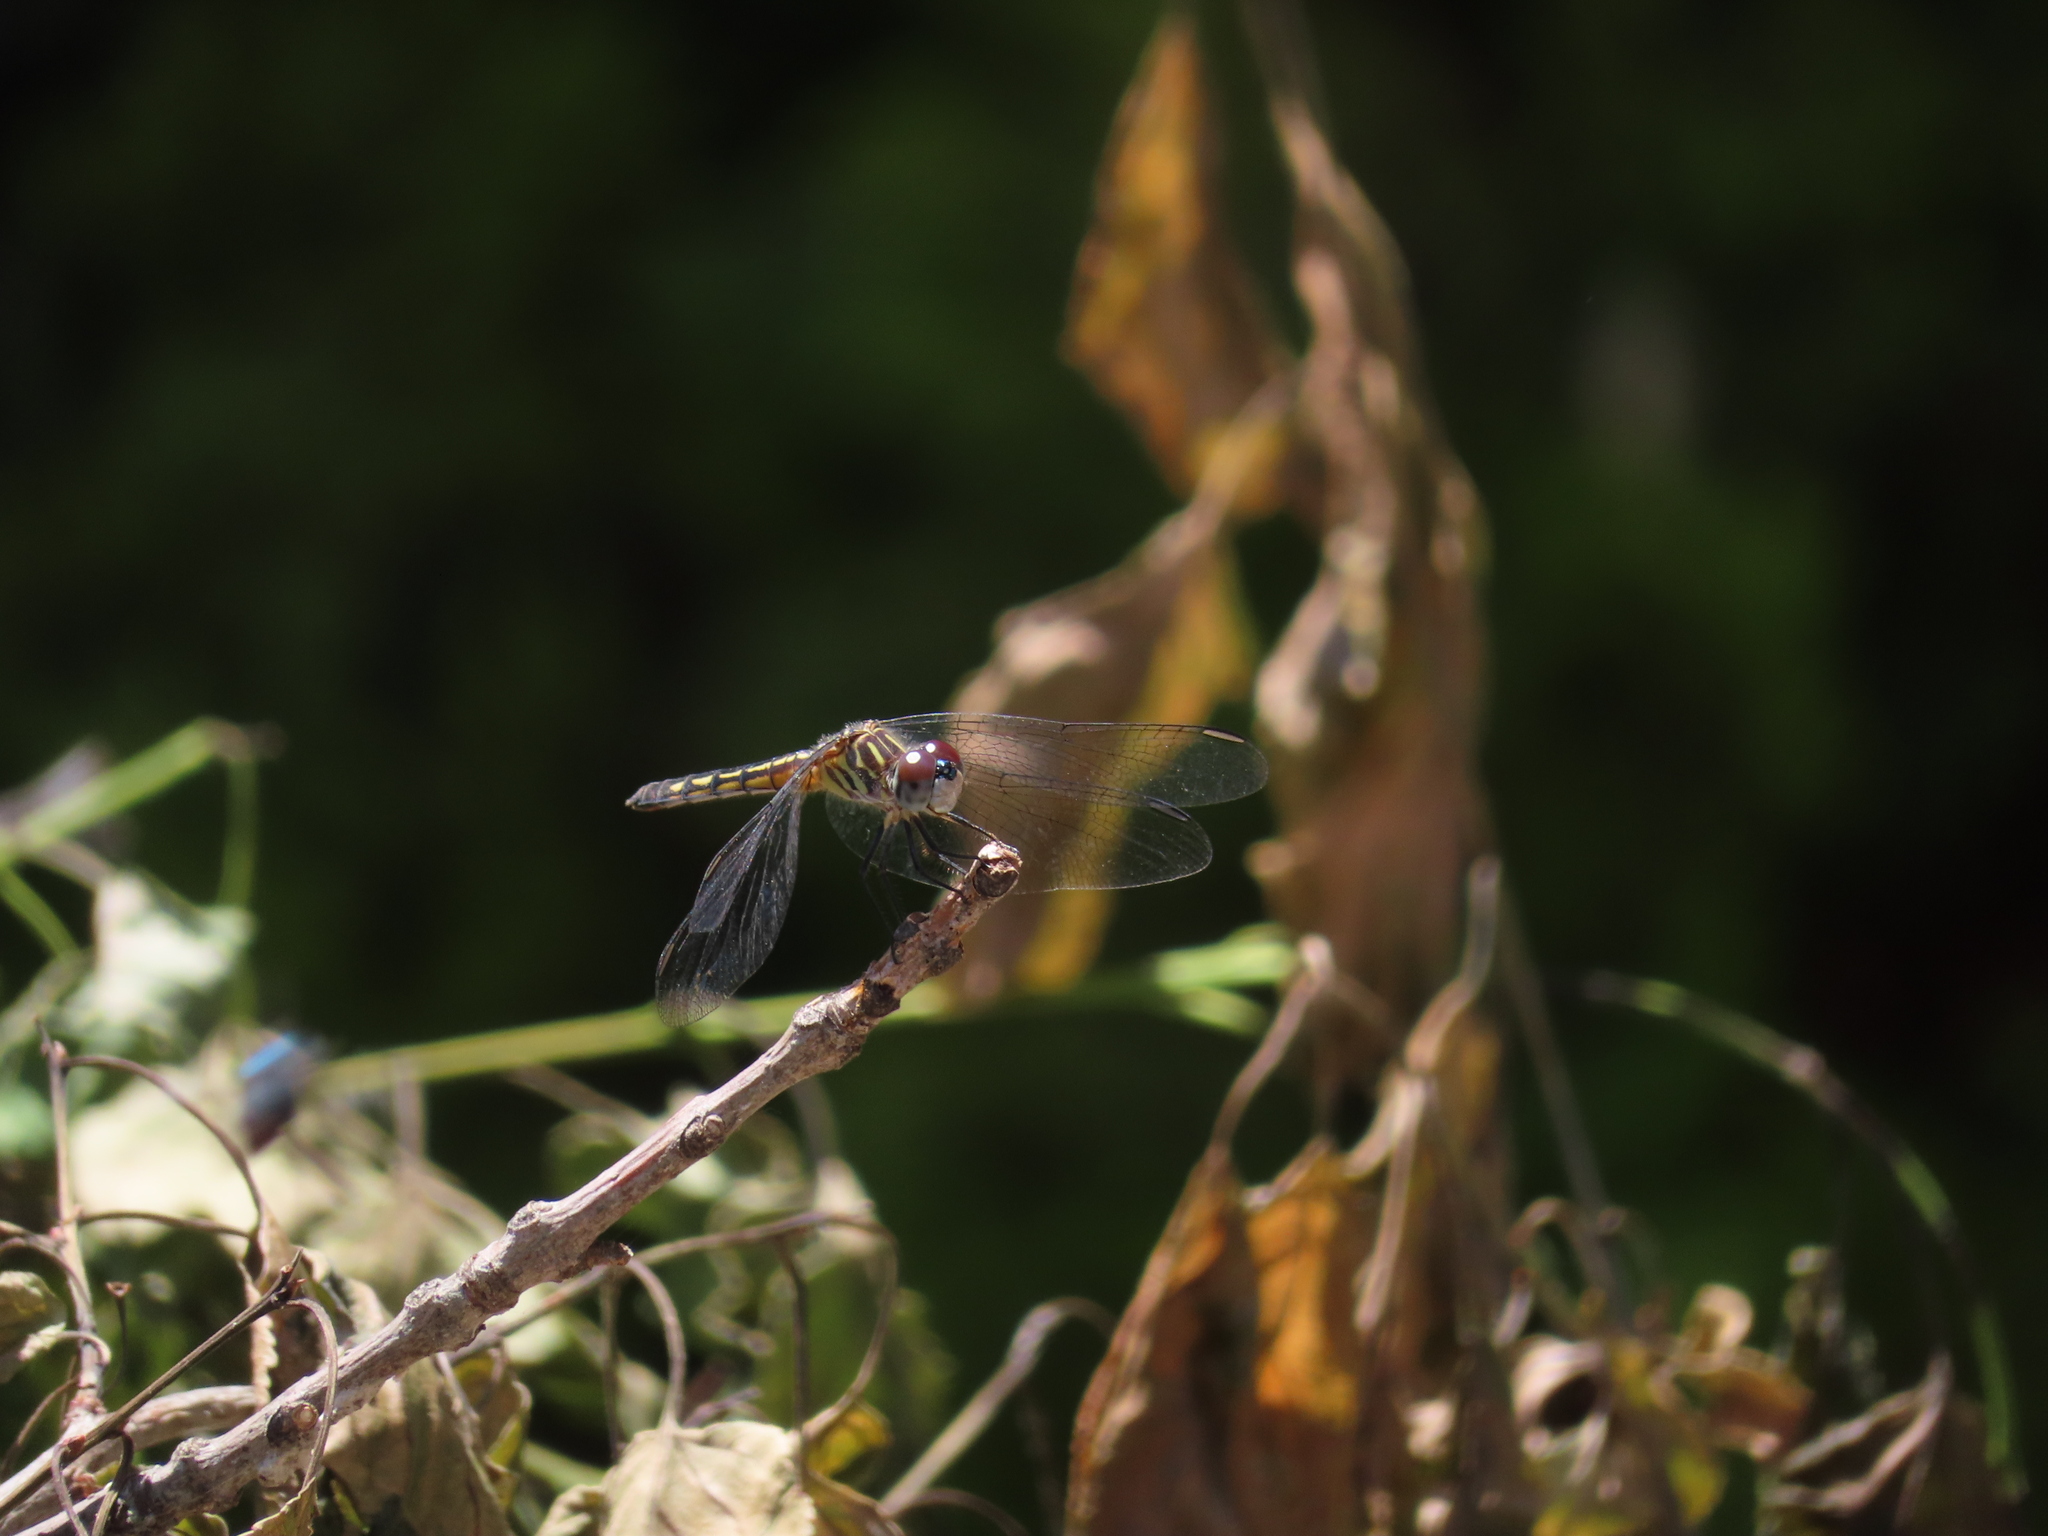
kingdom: Animalia
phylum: Arthropoda
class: Insecta
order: Odonata
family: Libellulidae
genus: Pachydiplax
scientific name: Pachydiplax longipennis
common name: Blue dasher
